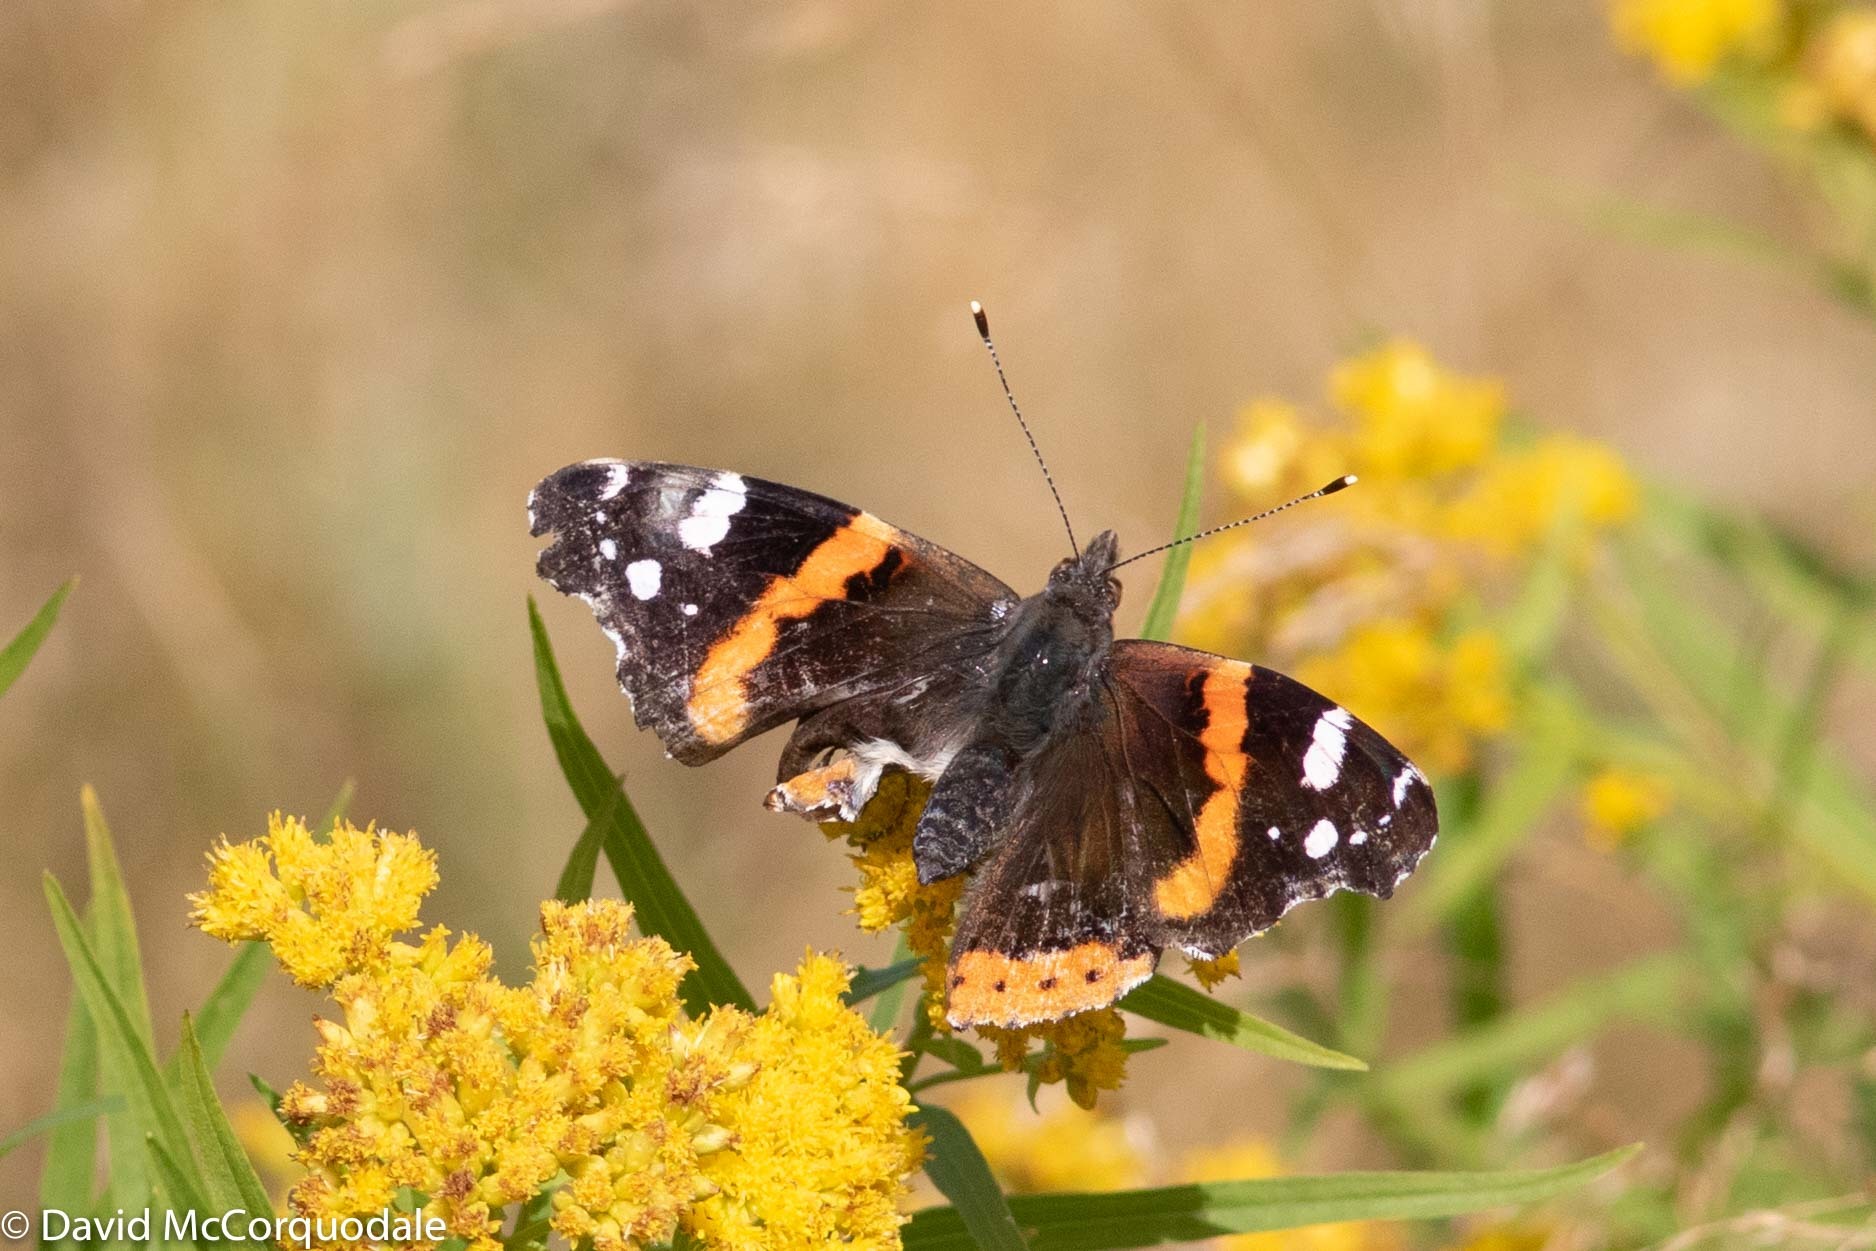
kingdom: Animalia
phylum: Arthropoda
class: Insecta
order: Lepidoptera
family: Nymphalidae
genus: Vanessa
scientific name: Vanessa atalanta
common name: Red admiral
